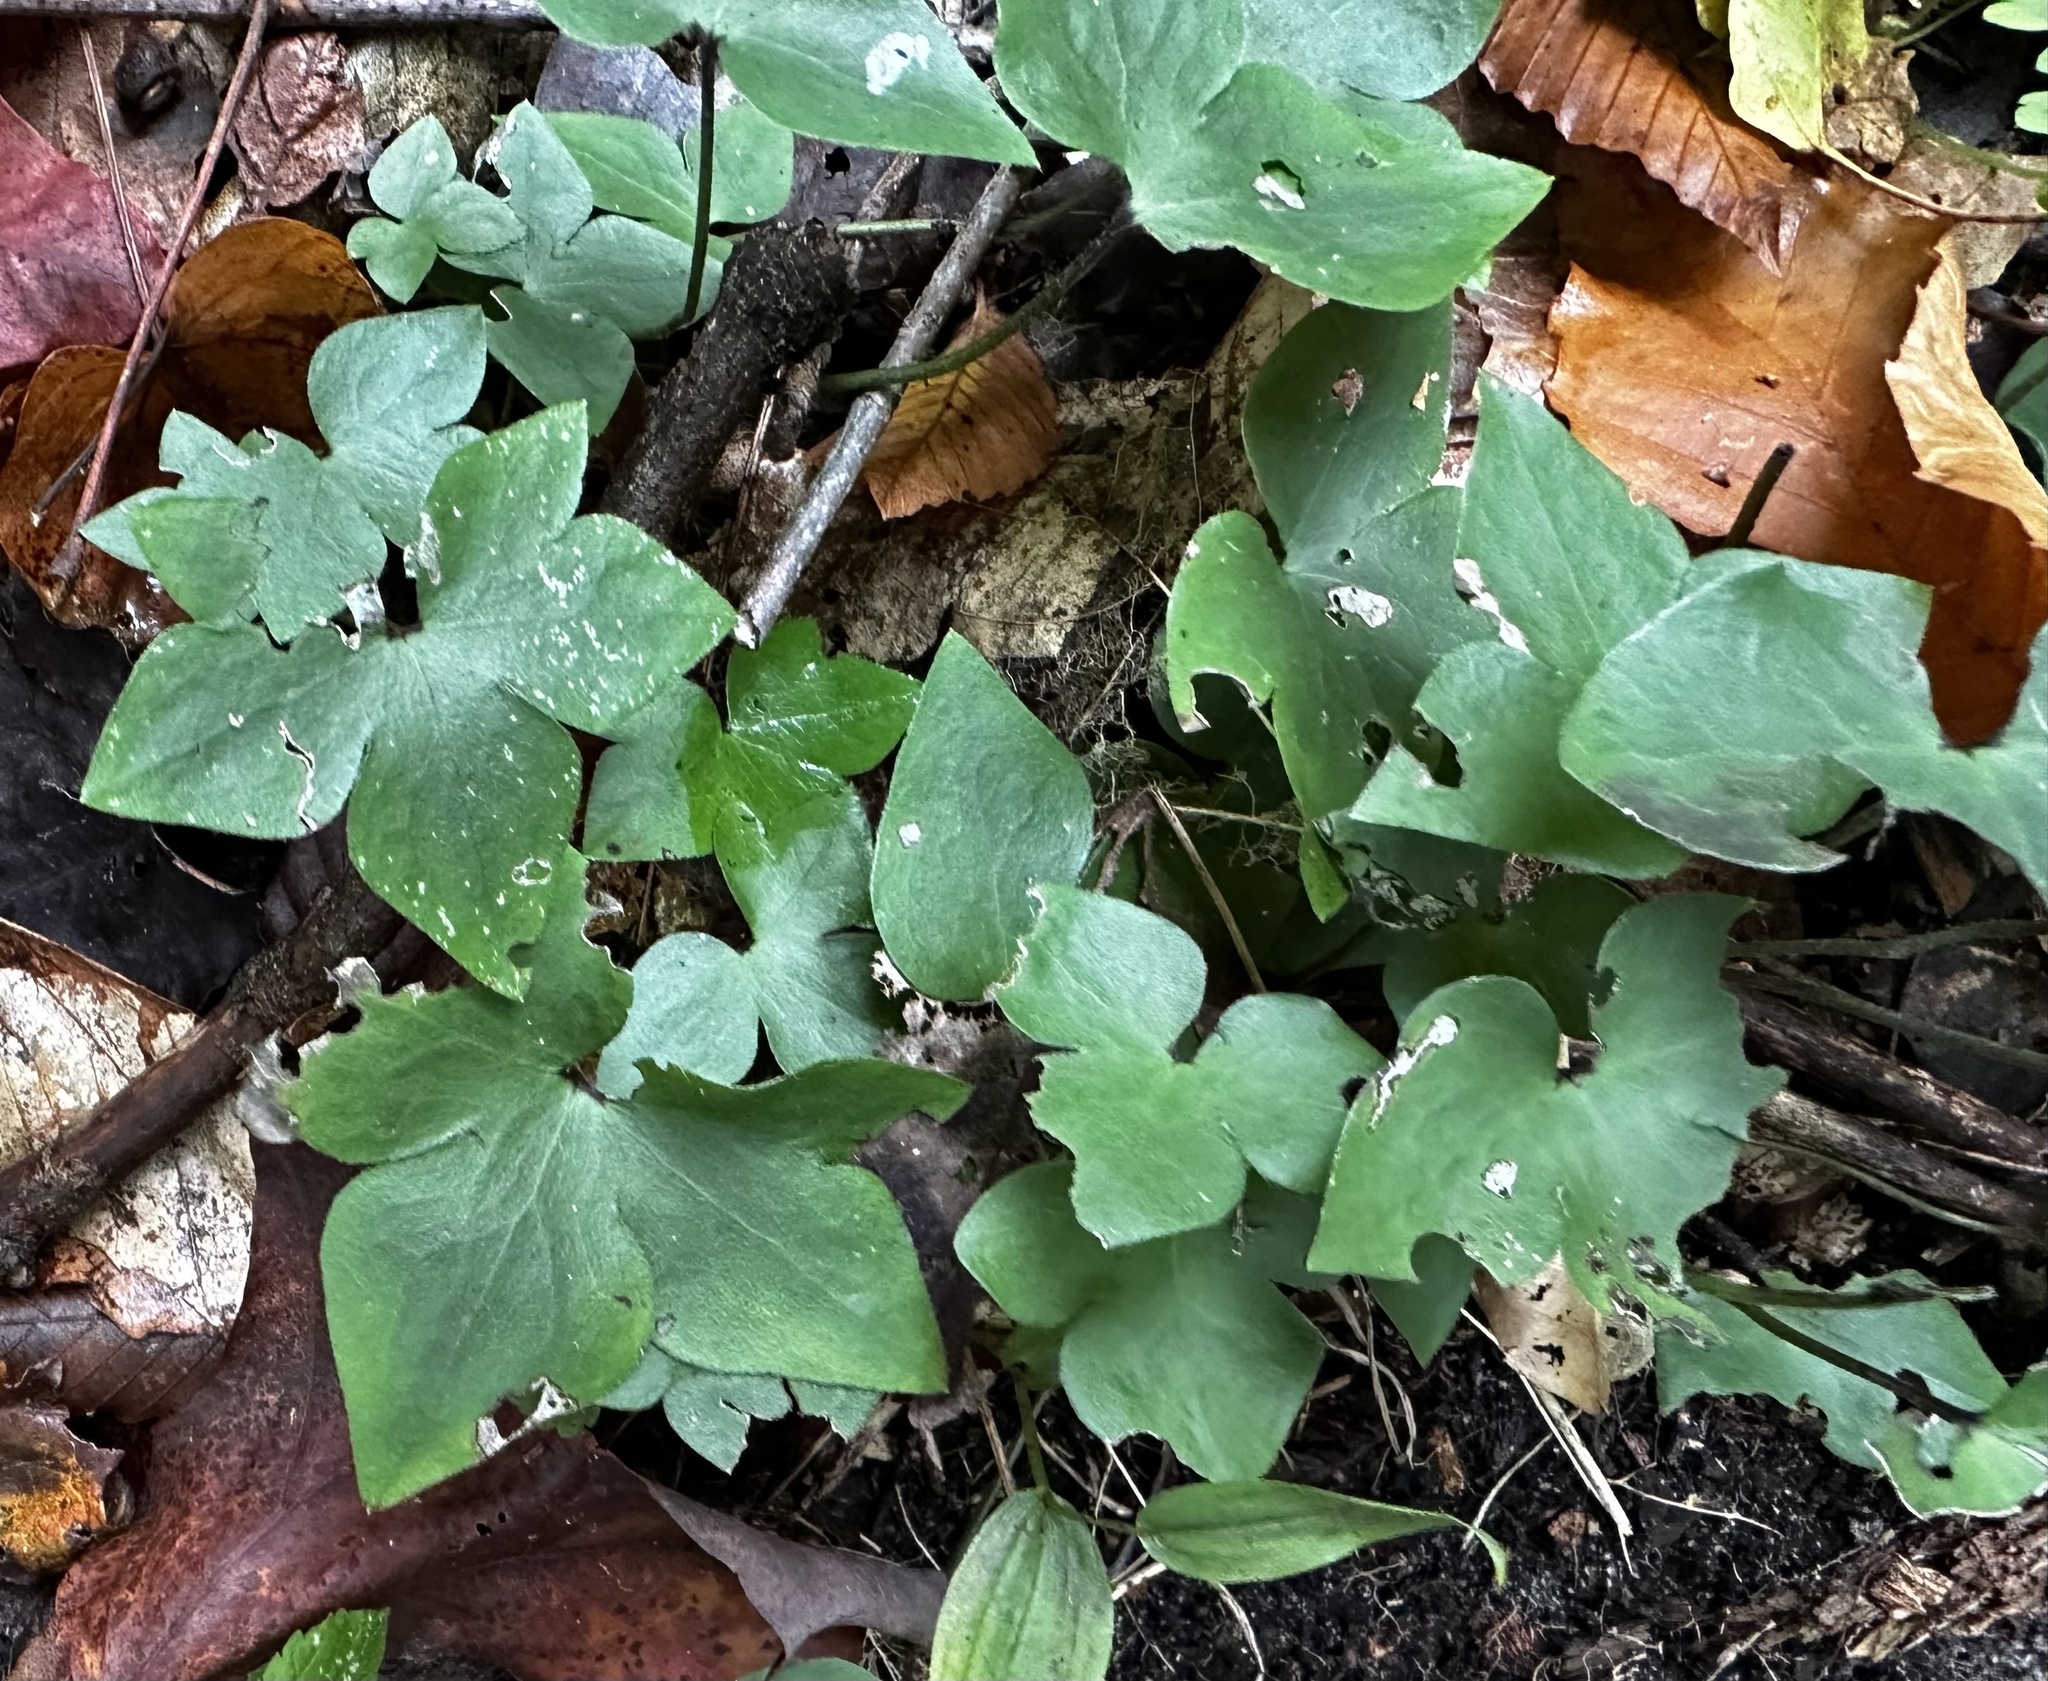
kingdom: Plantae
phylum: Tracheophyta
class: Magnoliopsida
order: Ranunculales
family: Ranunculaceae
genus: Hepatica
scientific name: Hepatica acutiloba
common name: Sharp-lobed hepatica
